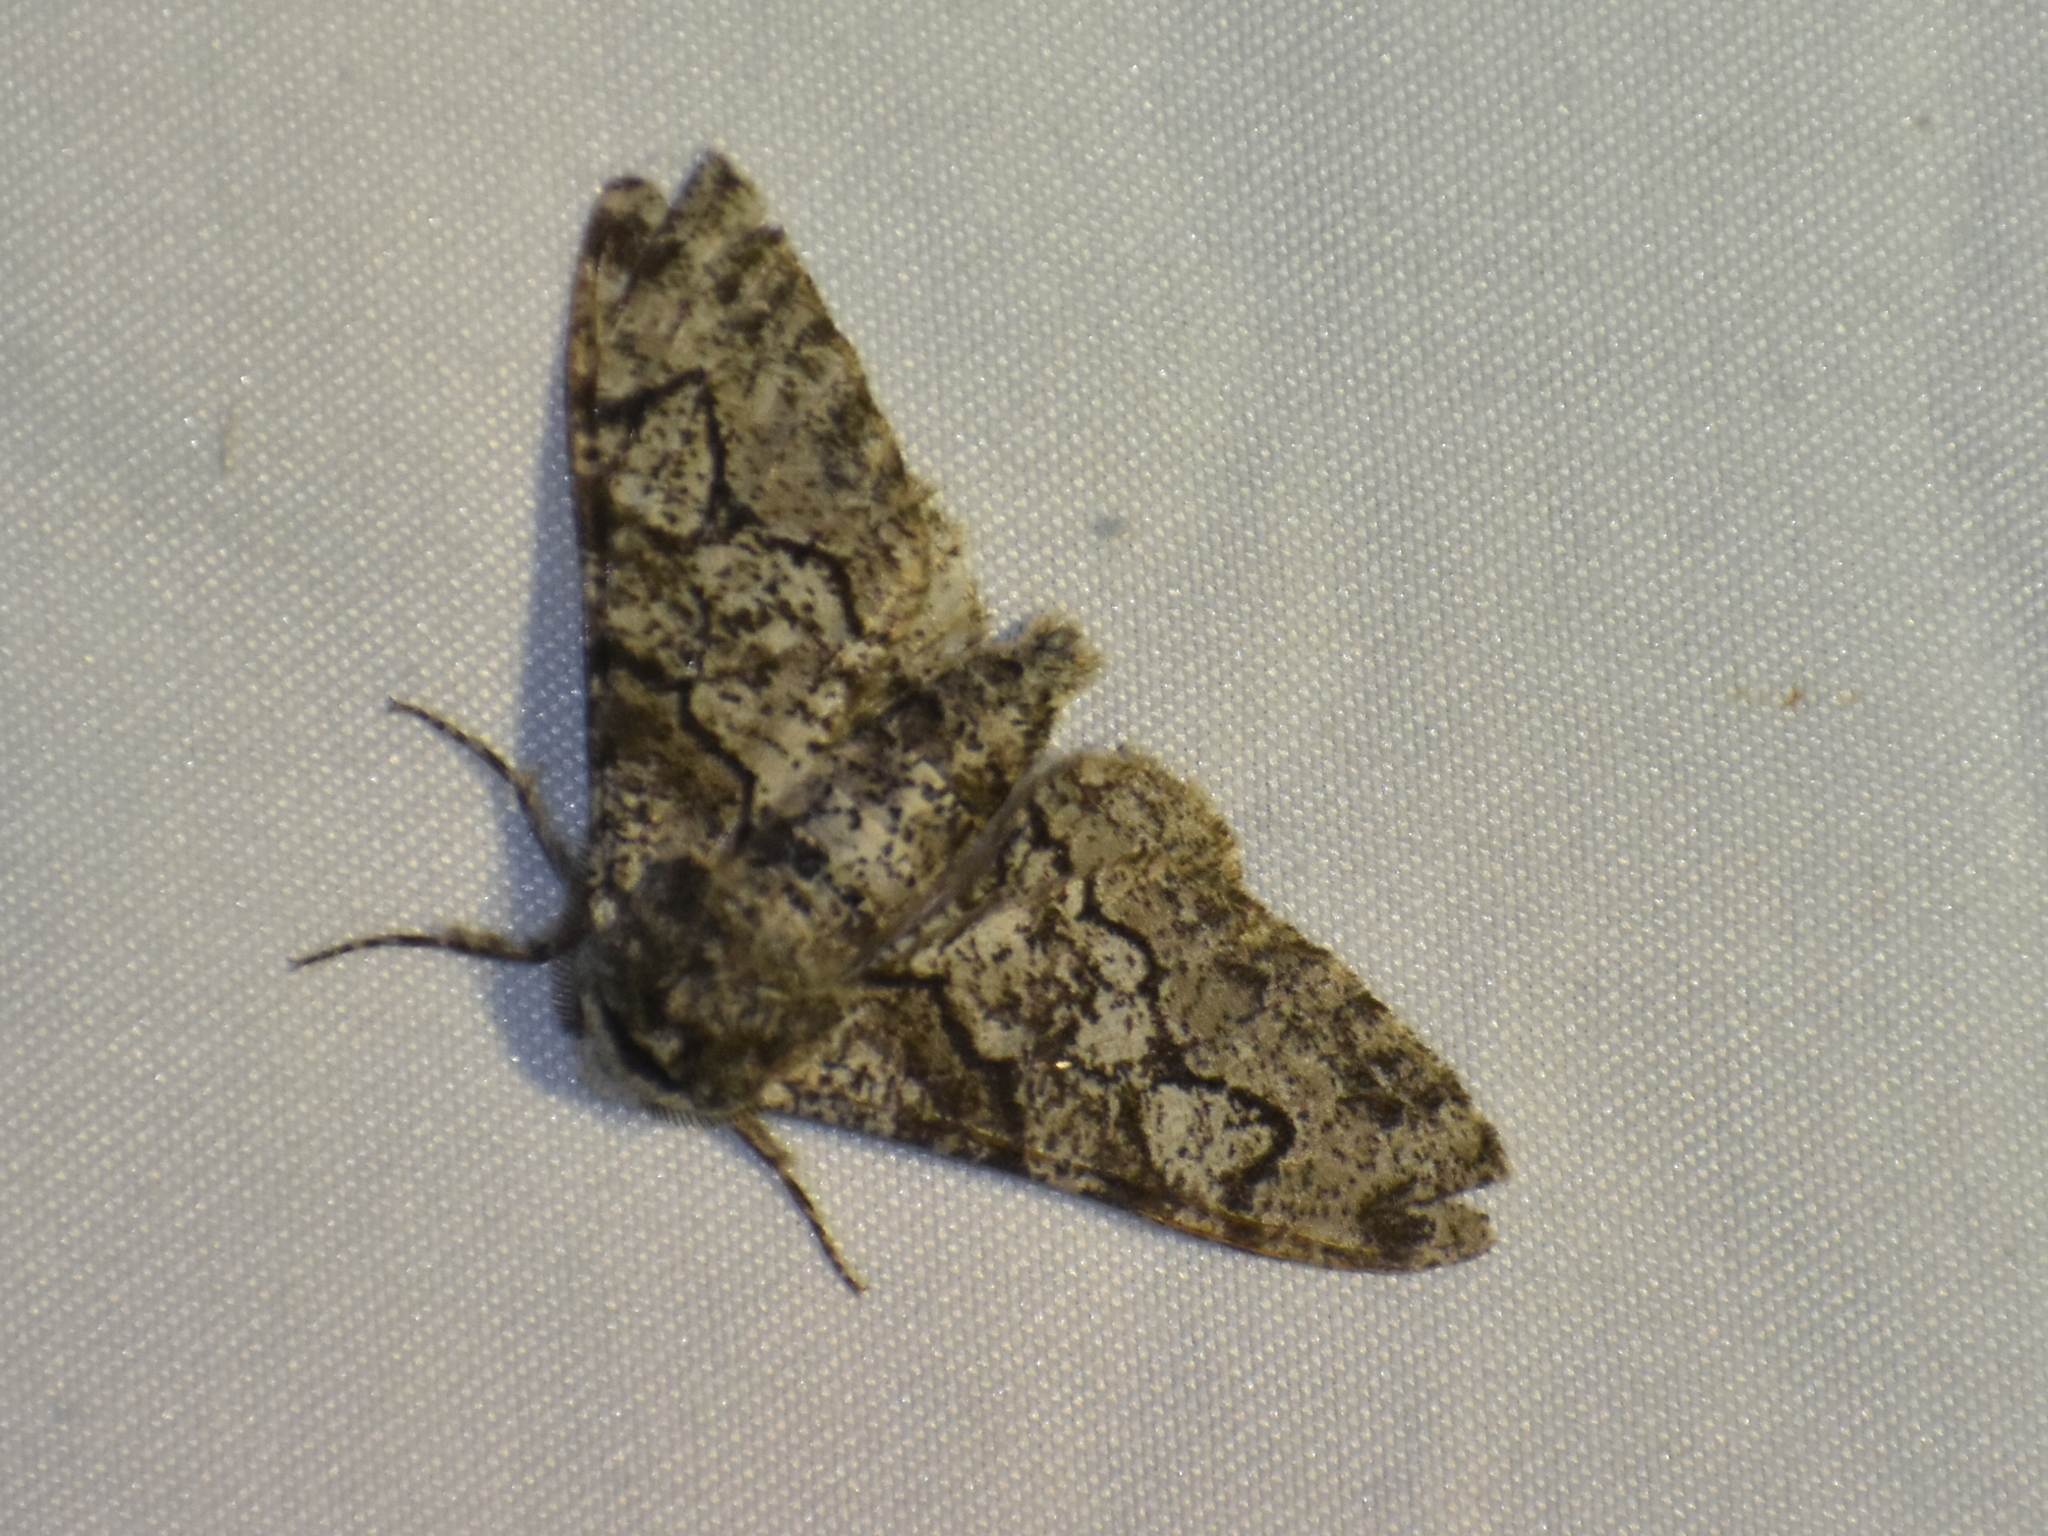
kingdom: Animalia
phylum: Arthropoda
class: Insecta
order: Lepidoptera
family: Geometridae
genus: Biston
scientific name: Biston betularia
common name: Peppered moth
